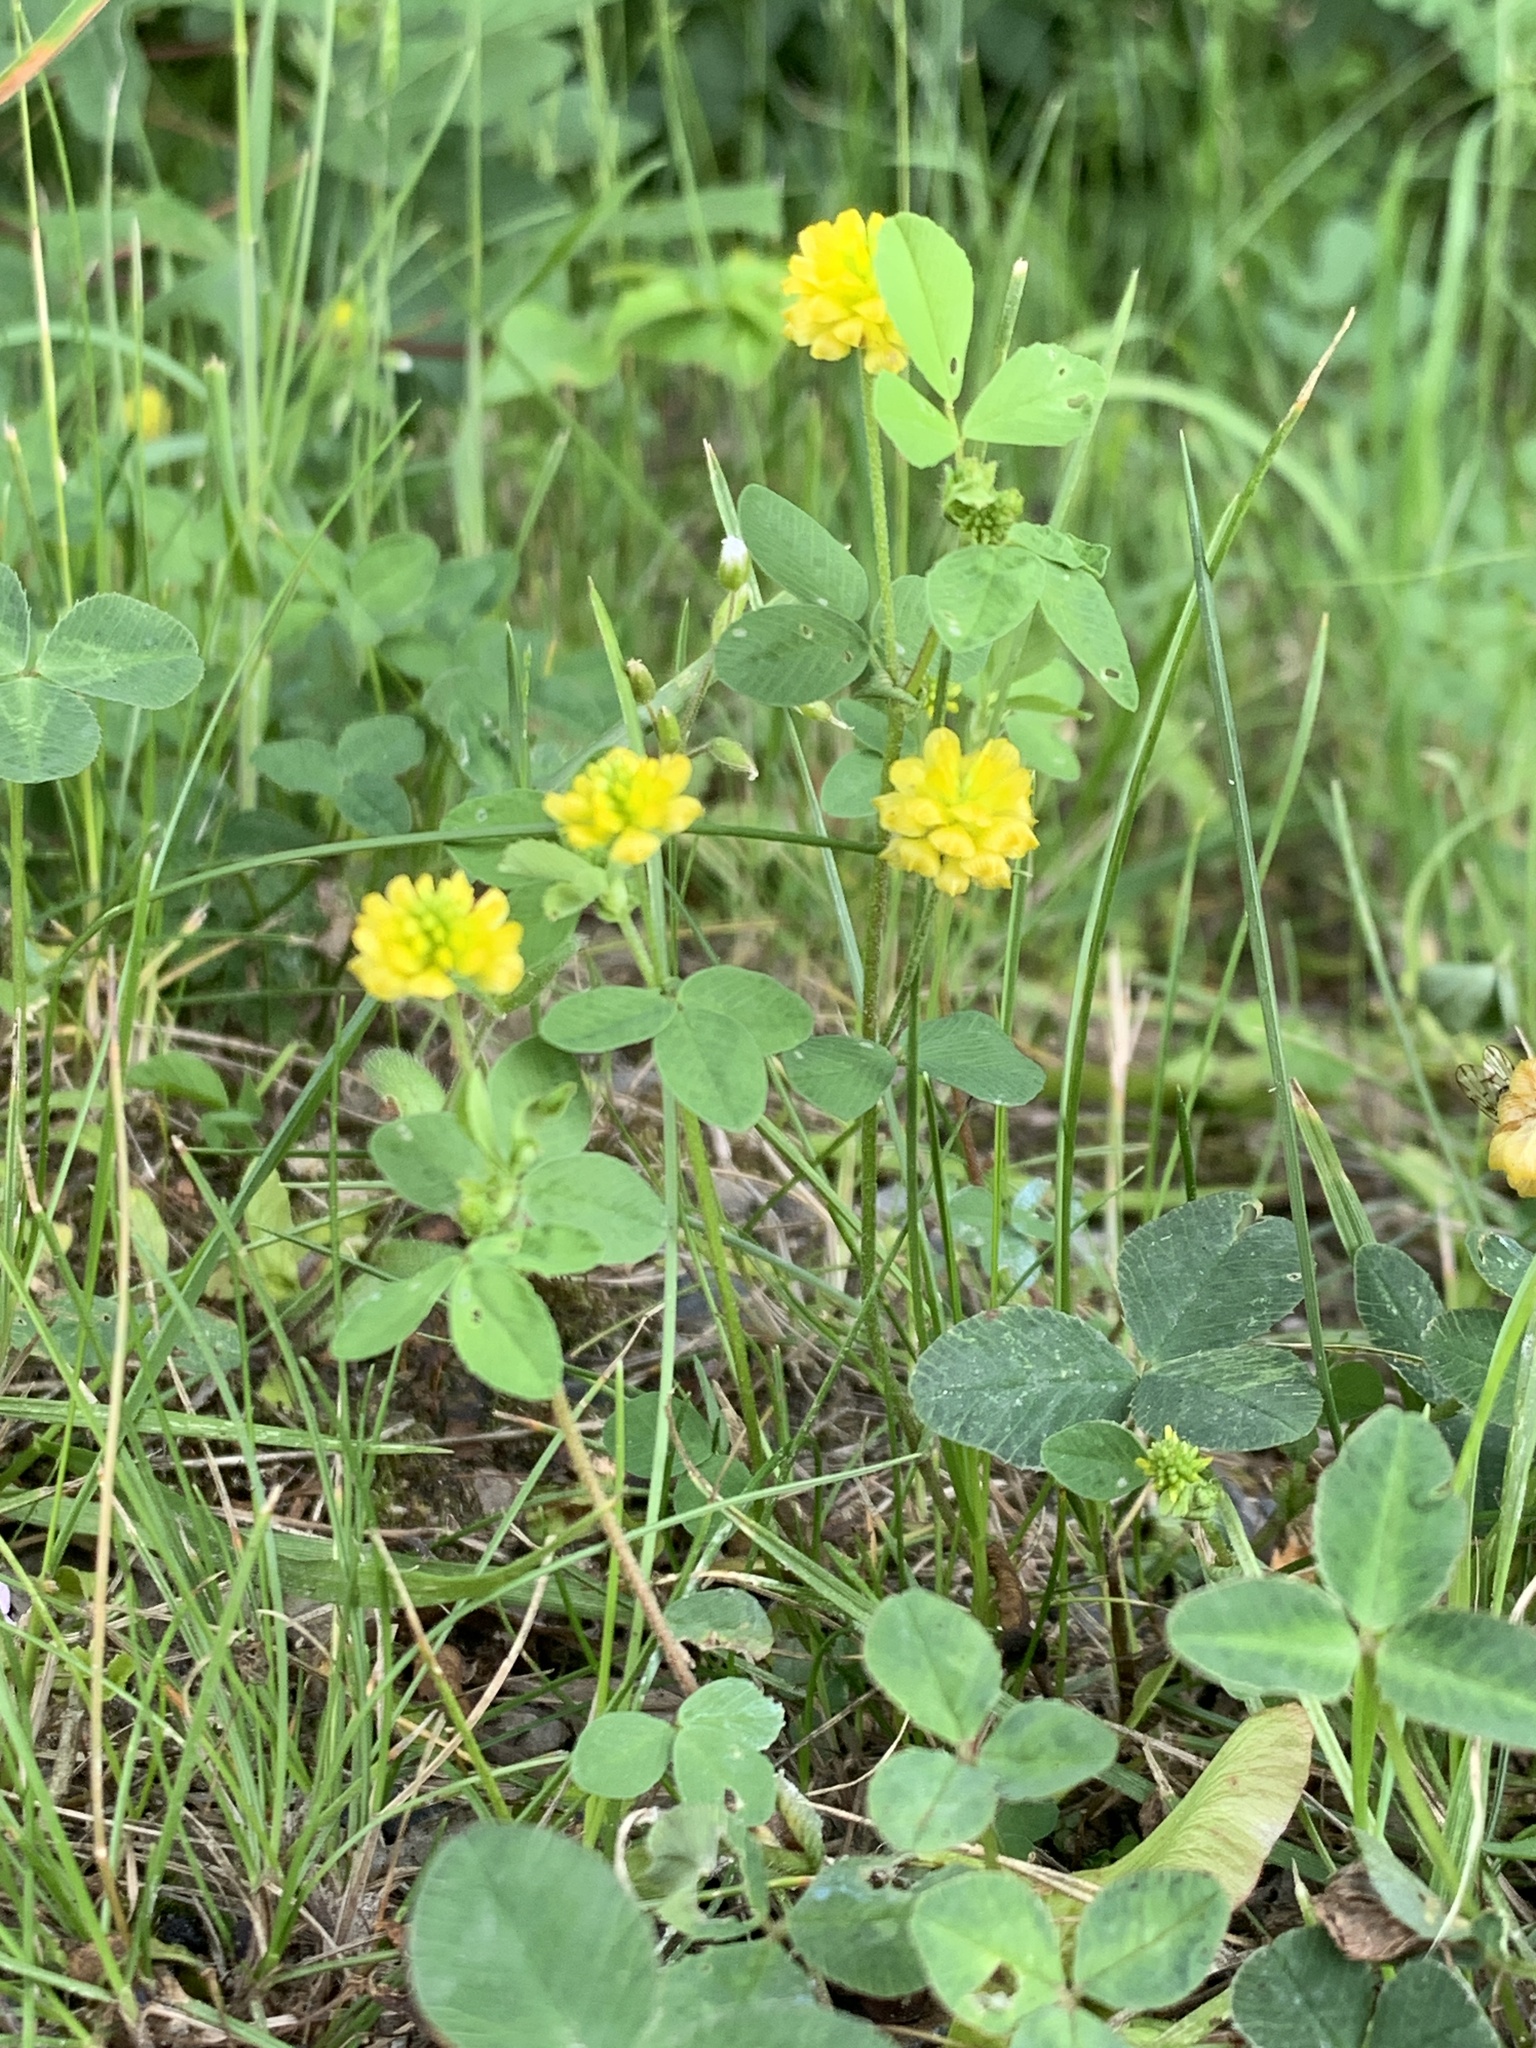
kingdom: Plantae
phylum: Tracheophyta
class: Magnoliopsida
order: Fabales
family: Fabaceae
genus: Trifolium
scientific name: Trifolium campestre
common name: Field clover
